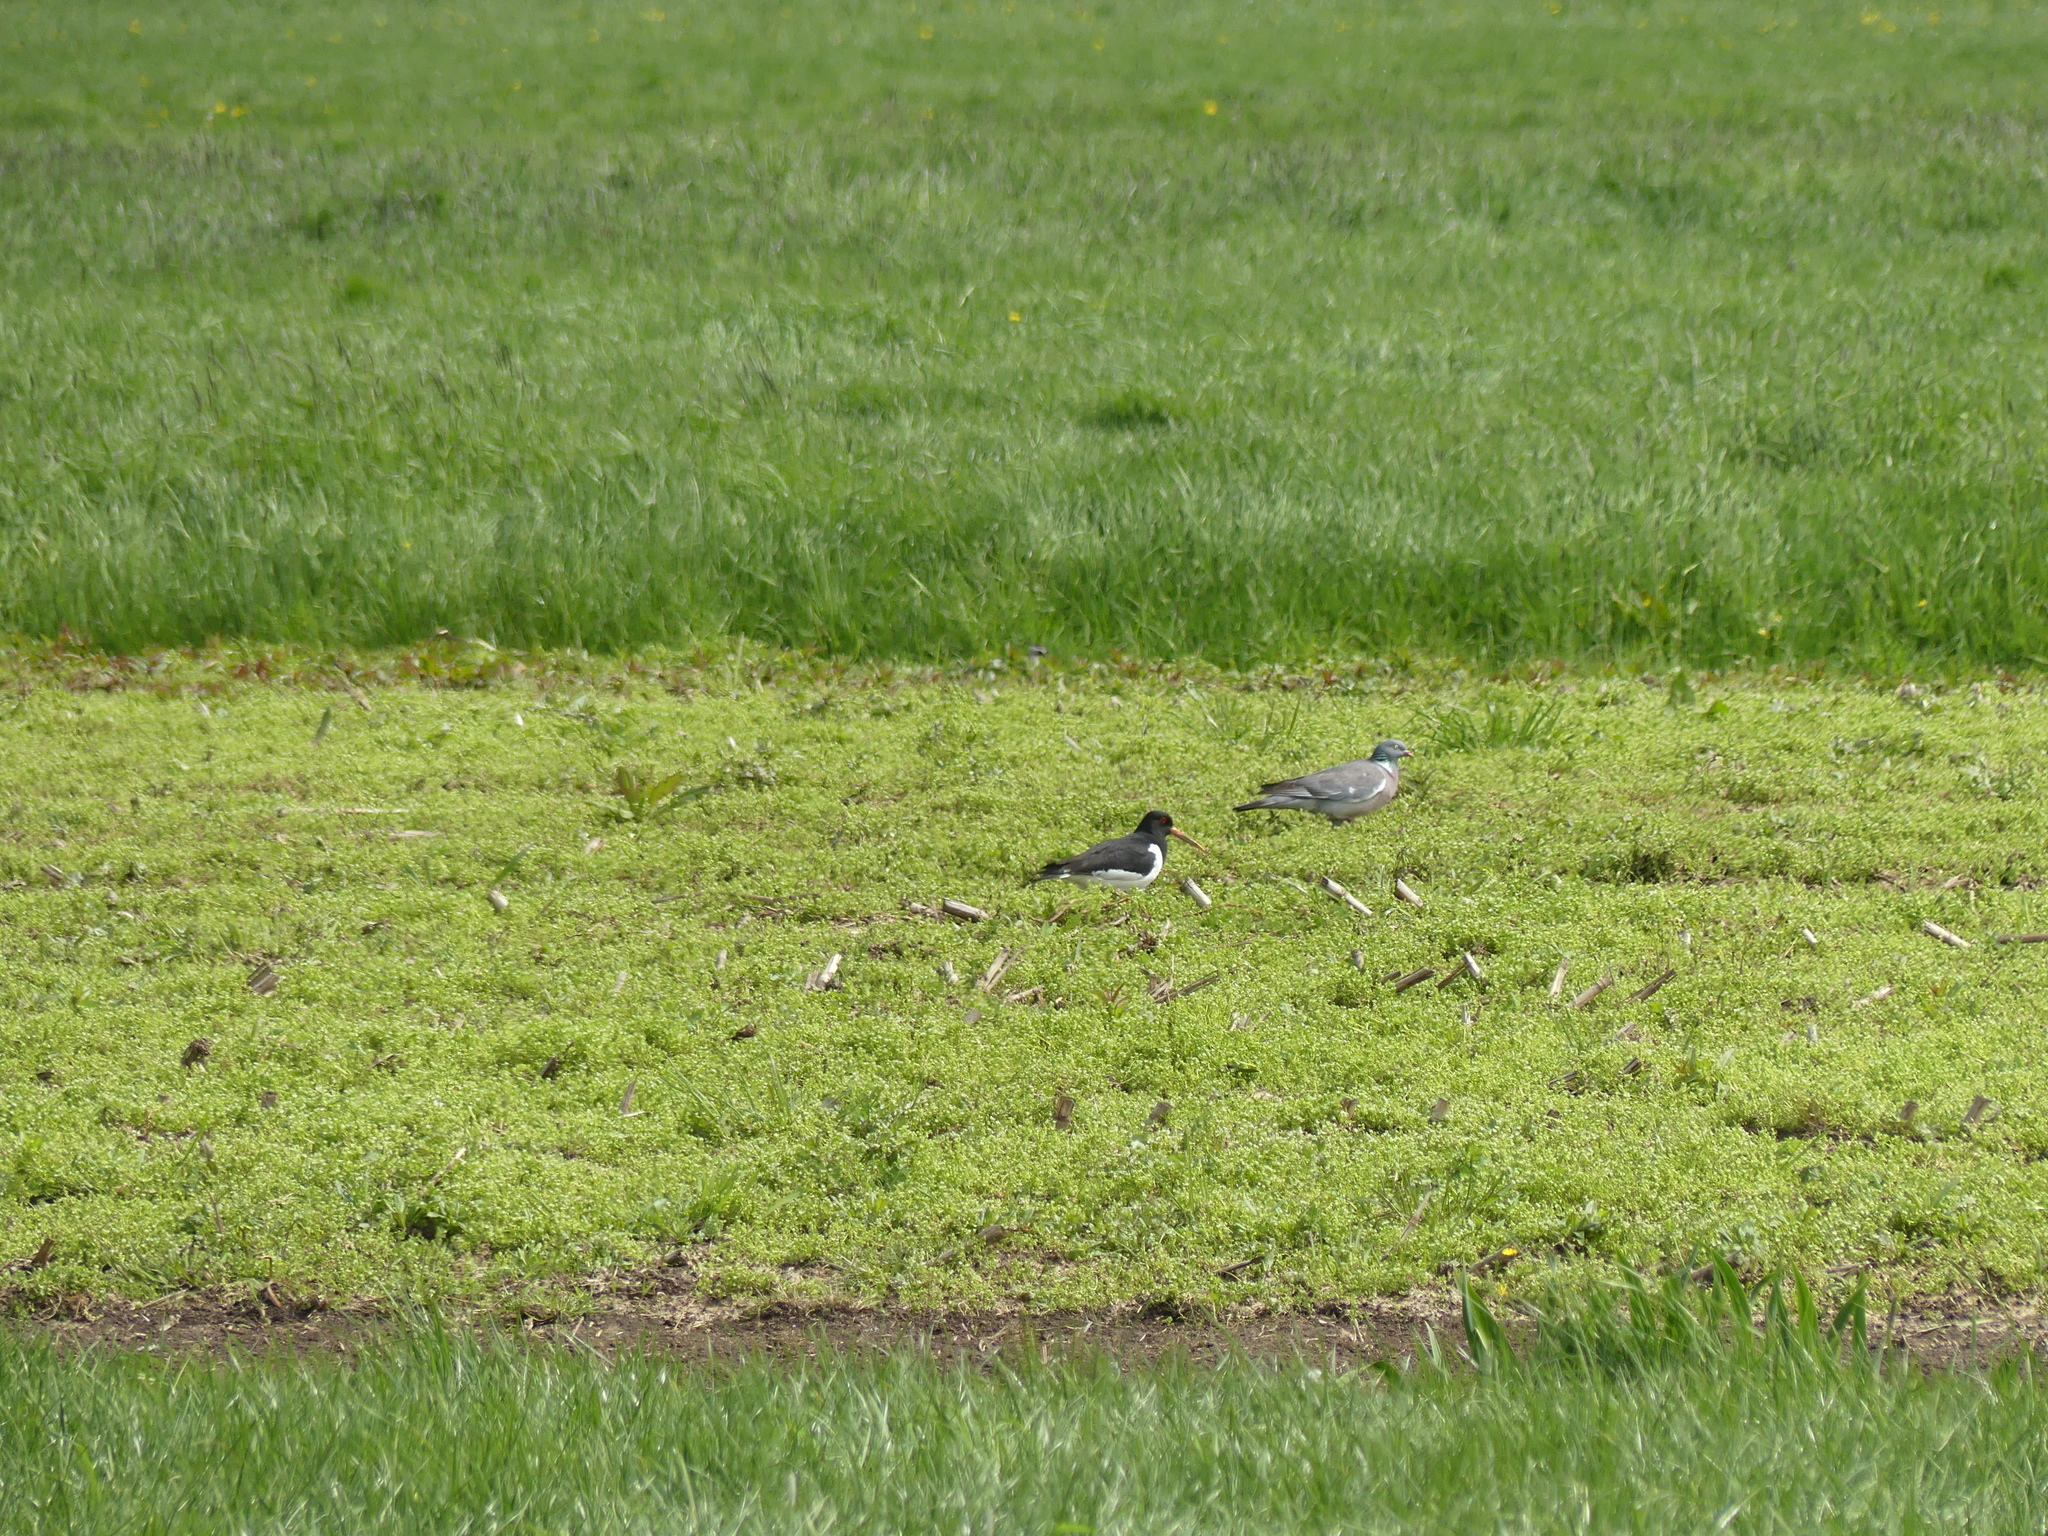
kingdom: Animalia
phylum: Chordata
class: Aves
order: Charadriiformes
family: Haematopodidae
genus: Haematopus
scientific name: Haematopus ostralegus
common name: Eurasian oystercatcher
